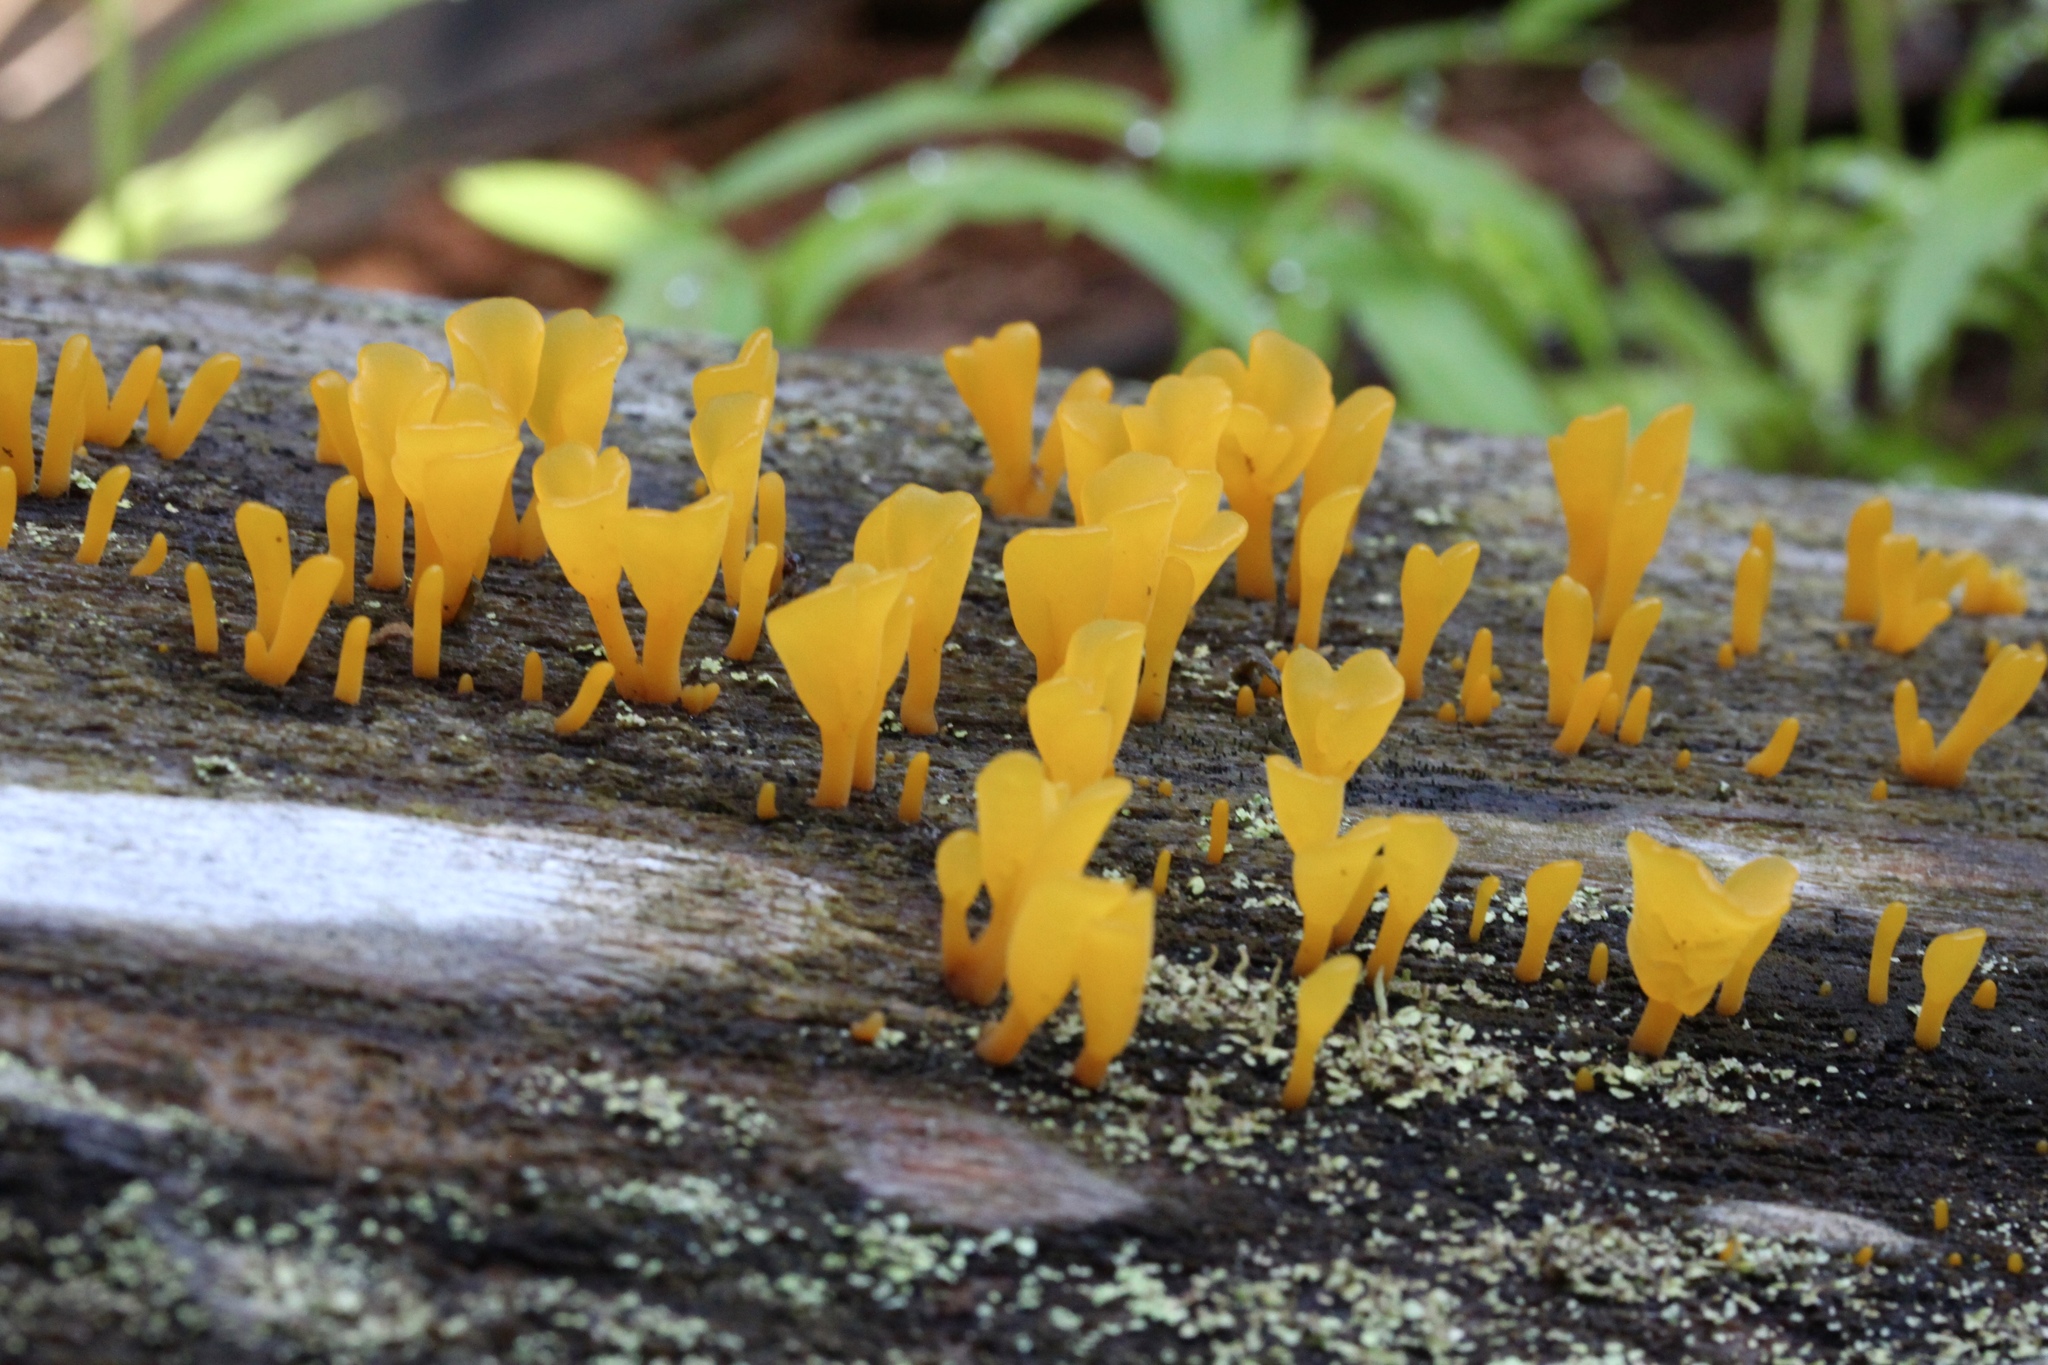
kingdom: Fungi
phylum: Basidiomycota
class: Dacrymycetes
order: Dacrymycetales
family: Dacrymycetaceae
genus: Dacrymyces
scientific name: Dacrymyces spathularius
